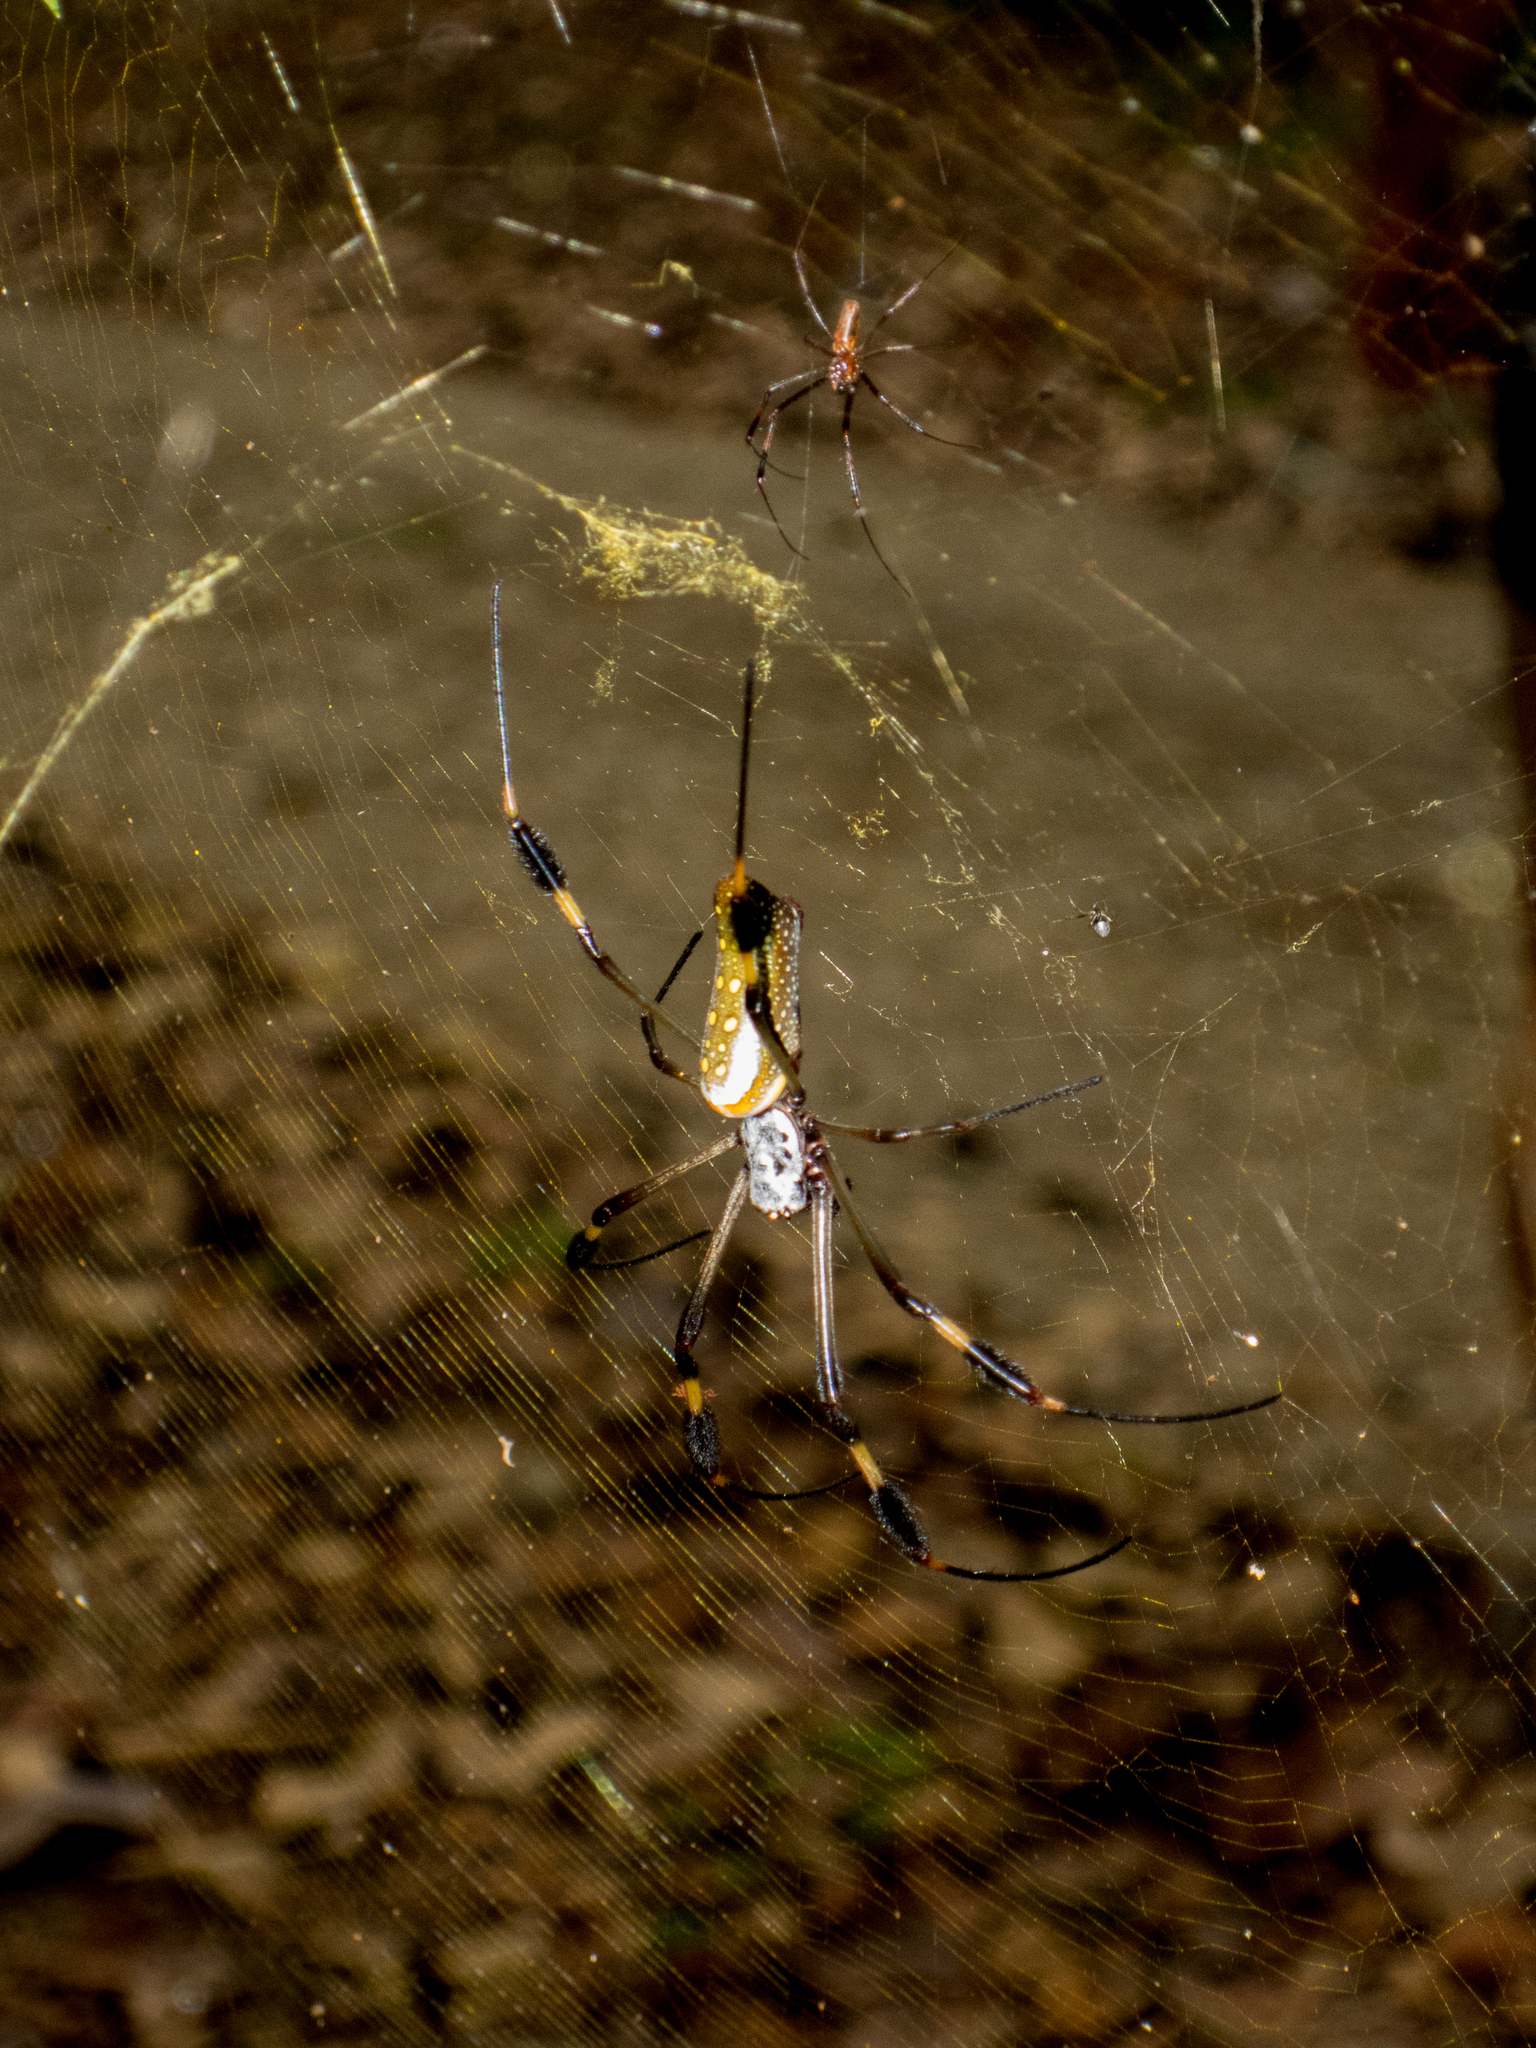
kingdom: Animalia
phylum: Arthropoda
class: Arachnida
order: Araneae
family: Araneidae
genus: Trichonephila
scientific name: Trichonephila clavipes
